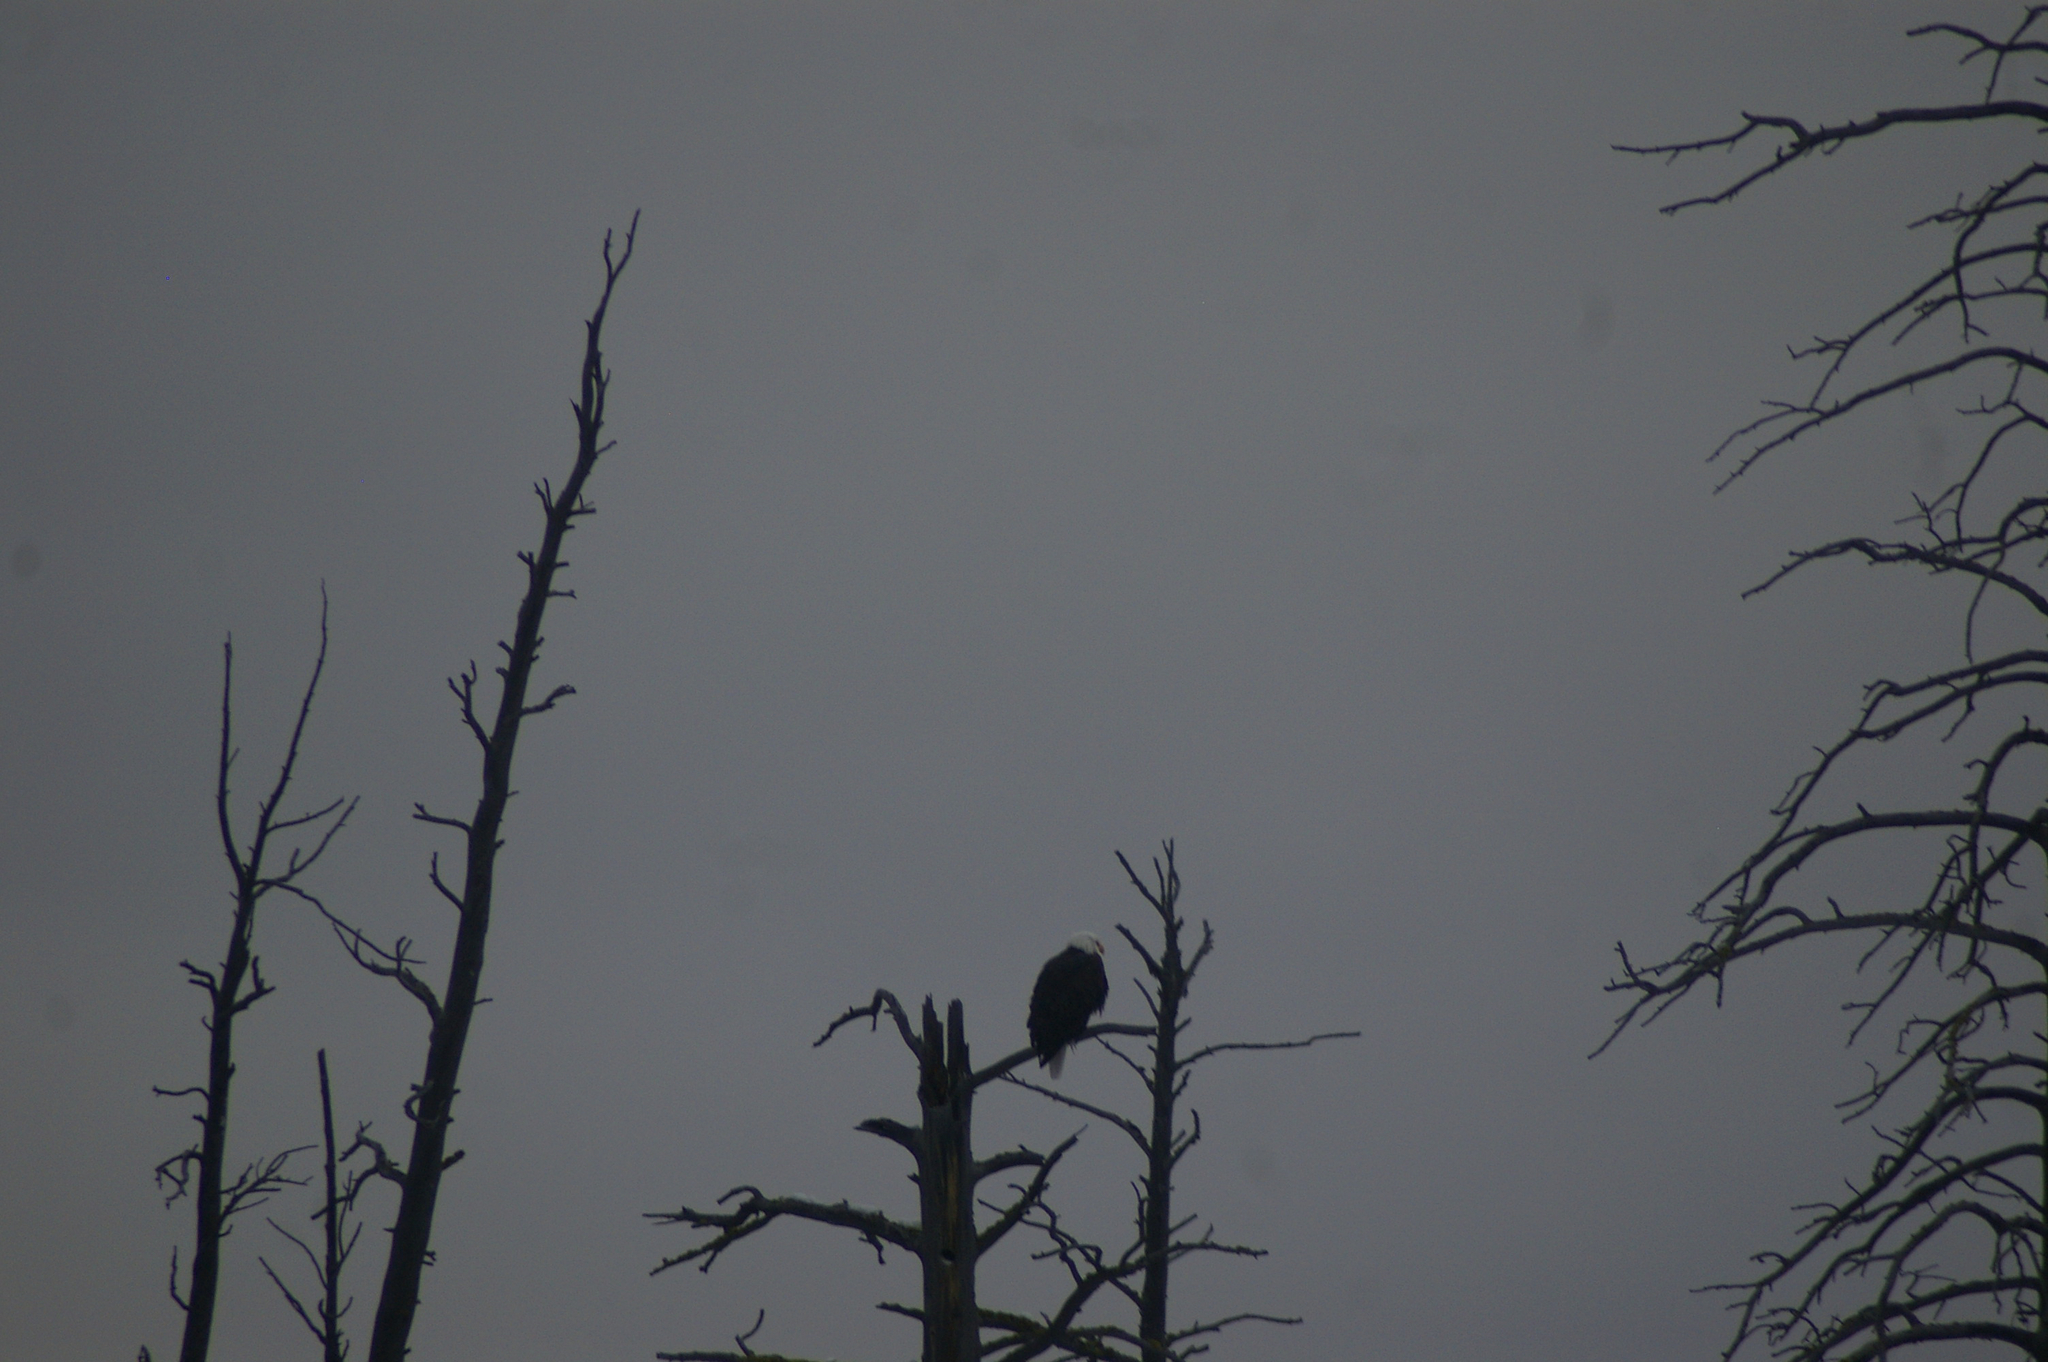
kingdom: Animalia
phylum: Chordata
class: Aves
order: Accipitriformes
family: Accipitridae
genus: Haliaeetus
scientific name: Haliaeetus leucocephalus
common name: Bald eagle
